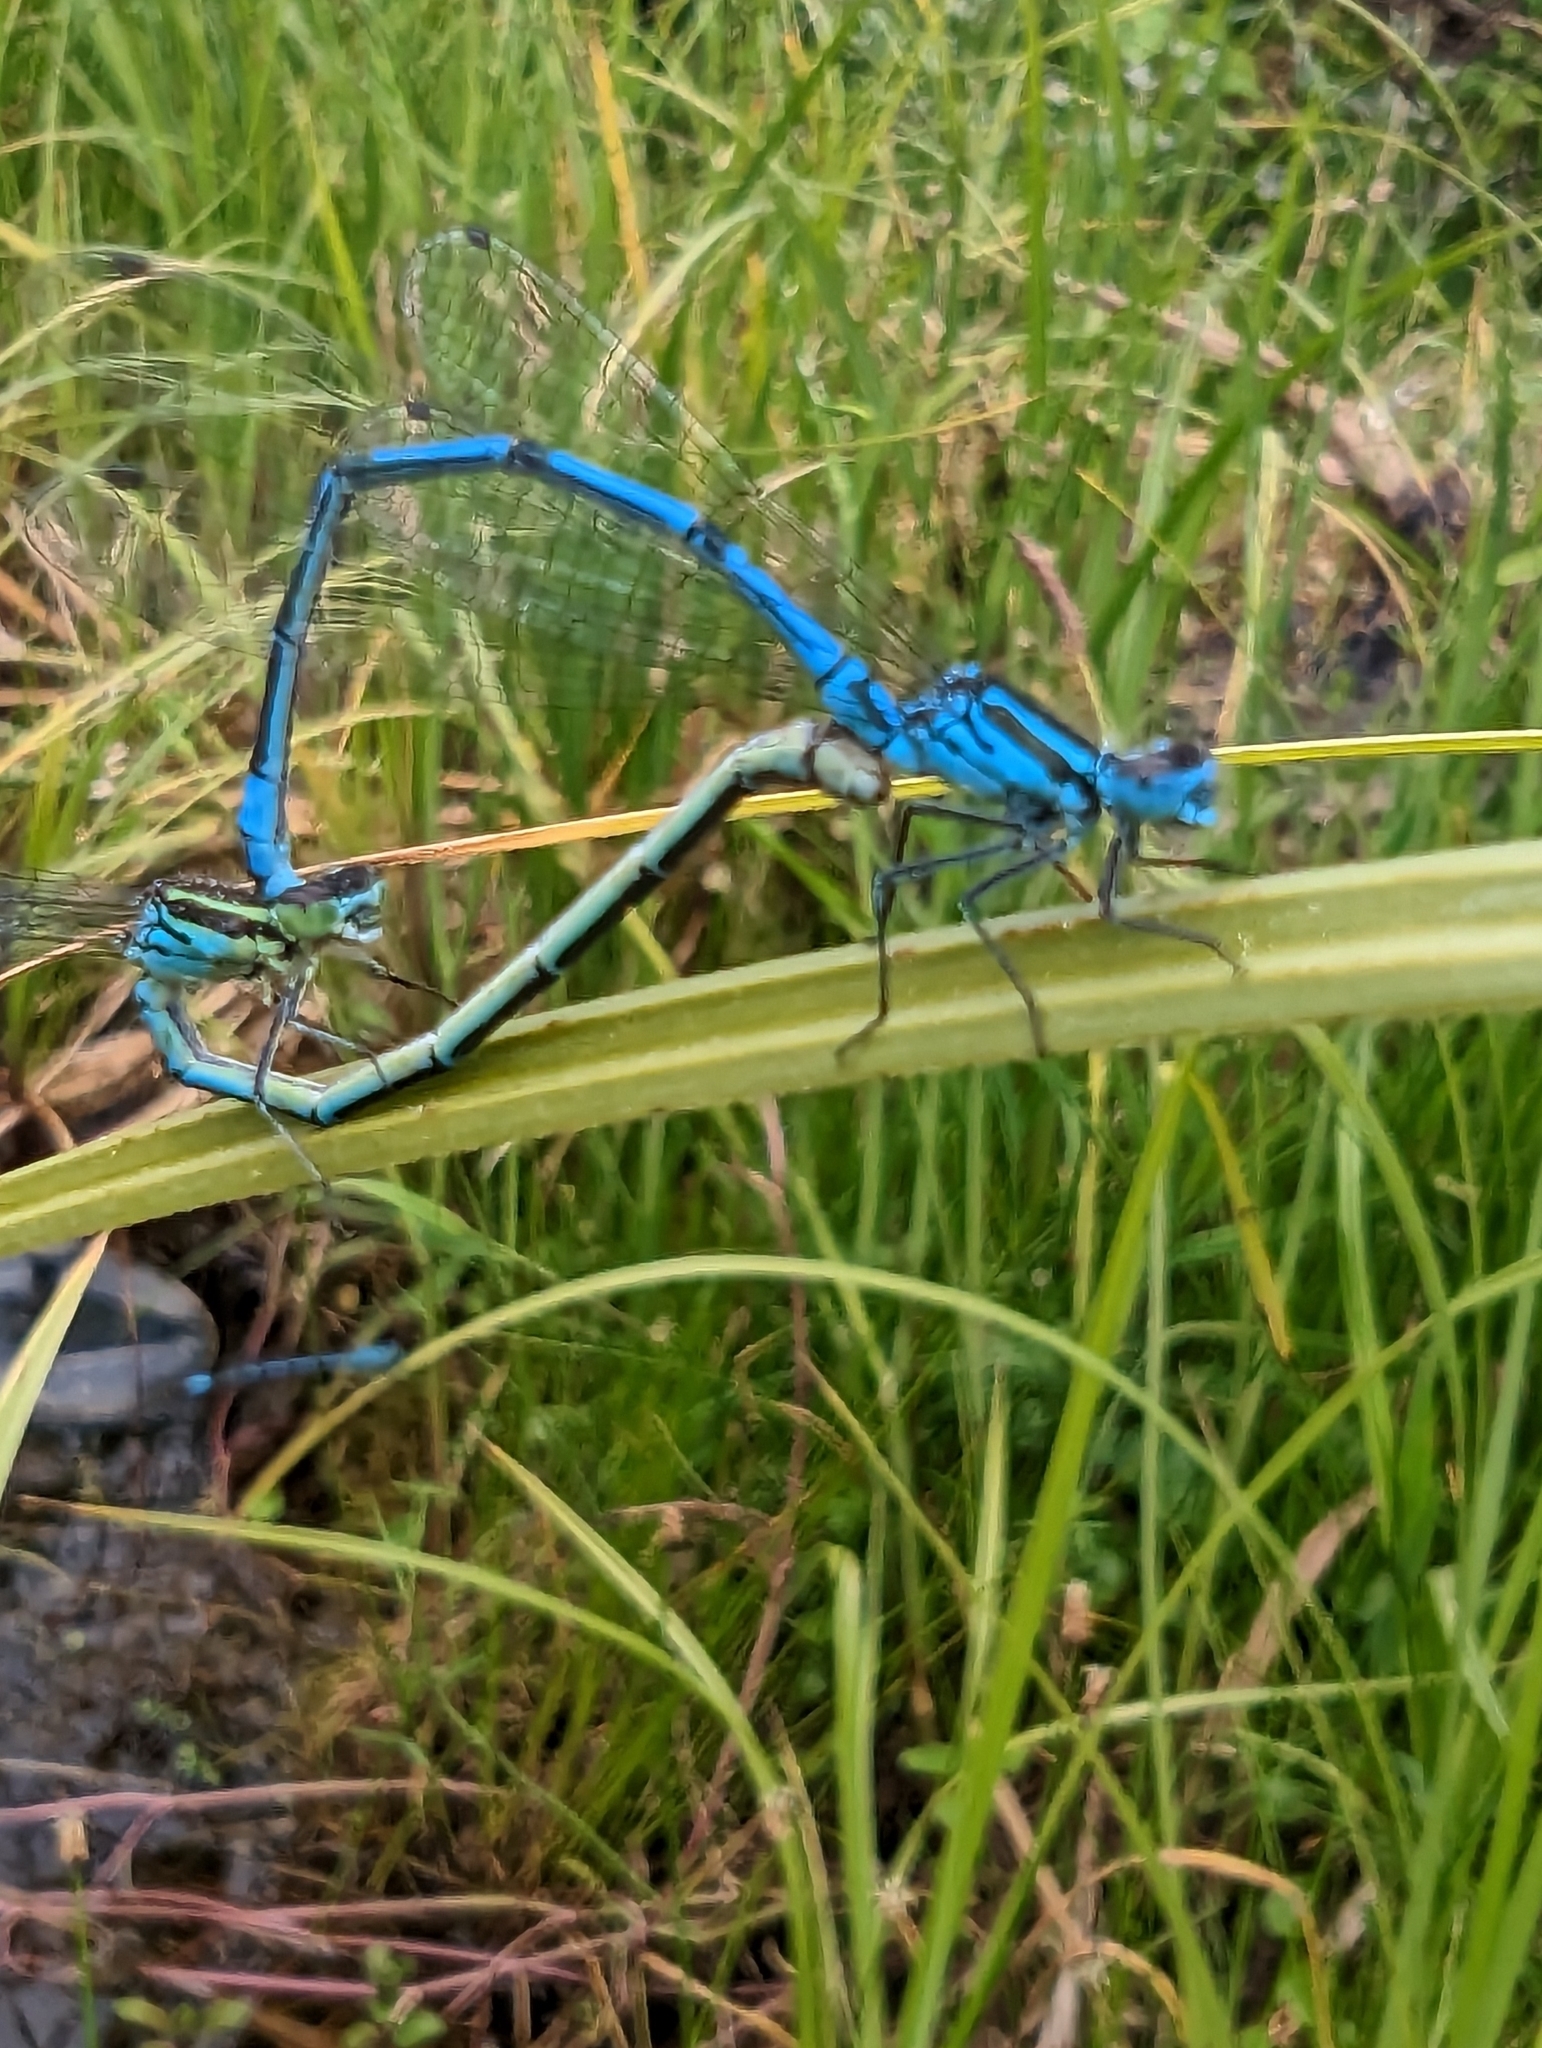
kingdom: Animalia
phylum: Arthropoda
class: Insecta
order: Odonata
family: Coenagrionidae
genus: Coenagrion
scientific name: Coenagrion puella
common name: Azure damselfly
